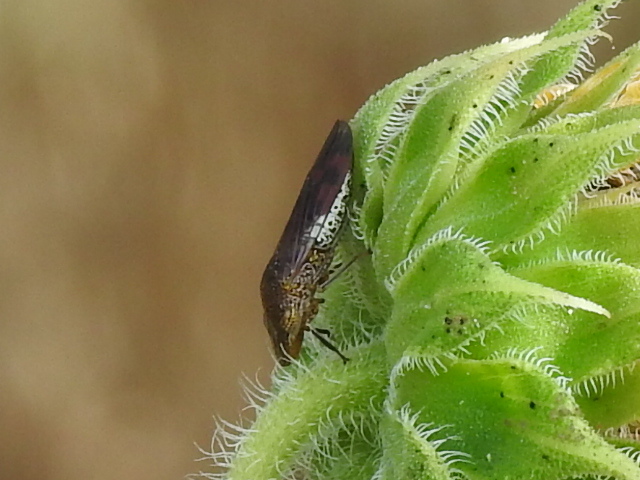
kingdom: Animalia
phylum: Arthropoda
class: Insecta
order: Hemiptera
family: Cicadellidae
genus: Homalodisca
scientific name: Homalodisca vitripennis
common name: Glassy-winged sharpshooter
